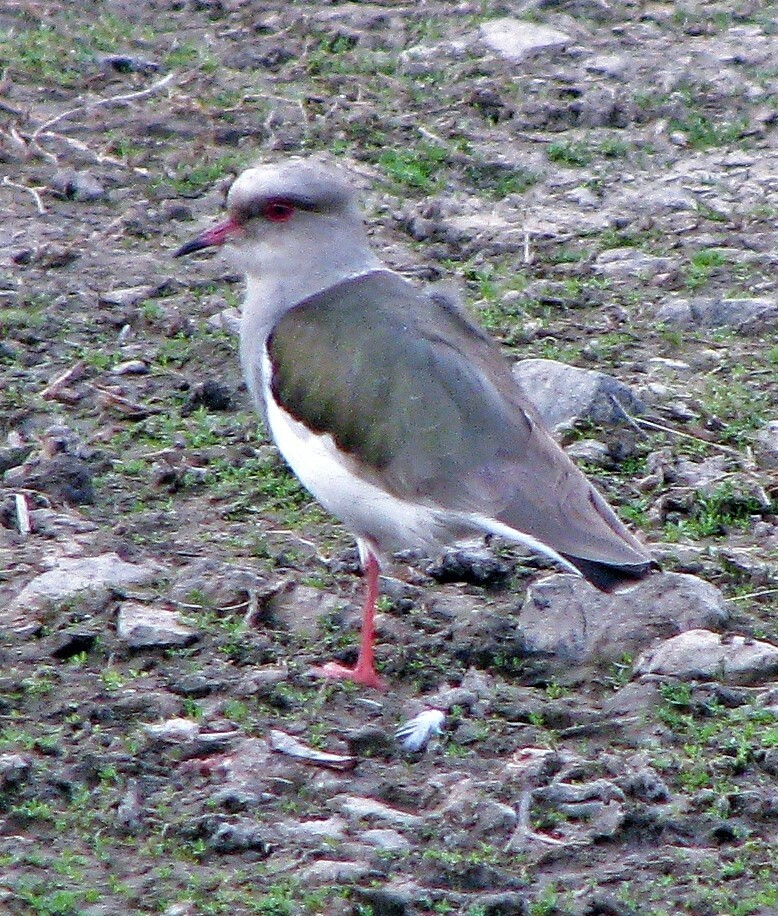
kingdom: Animalia
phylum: Chordata
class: Aves
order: Charadriiformes
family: Charadriidae
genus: Vanellus
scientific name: Vanellus resplendens
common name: Andean lapwing
